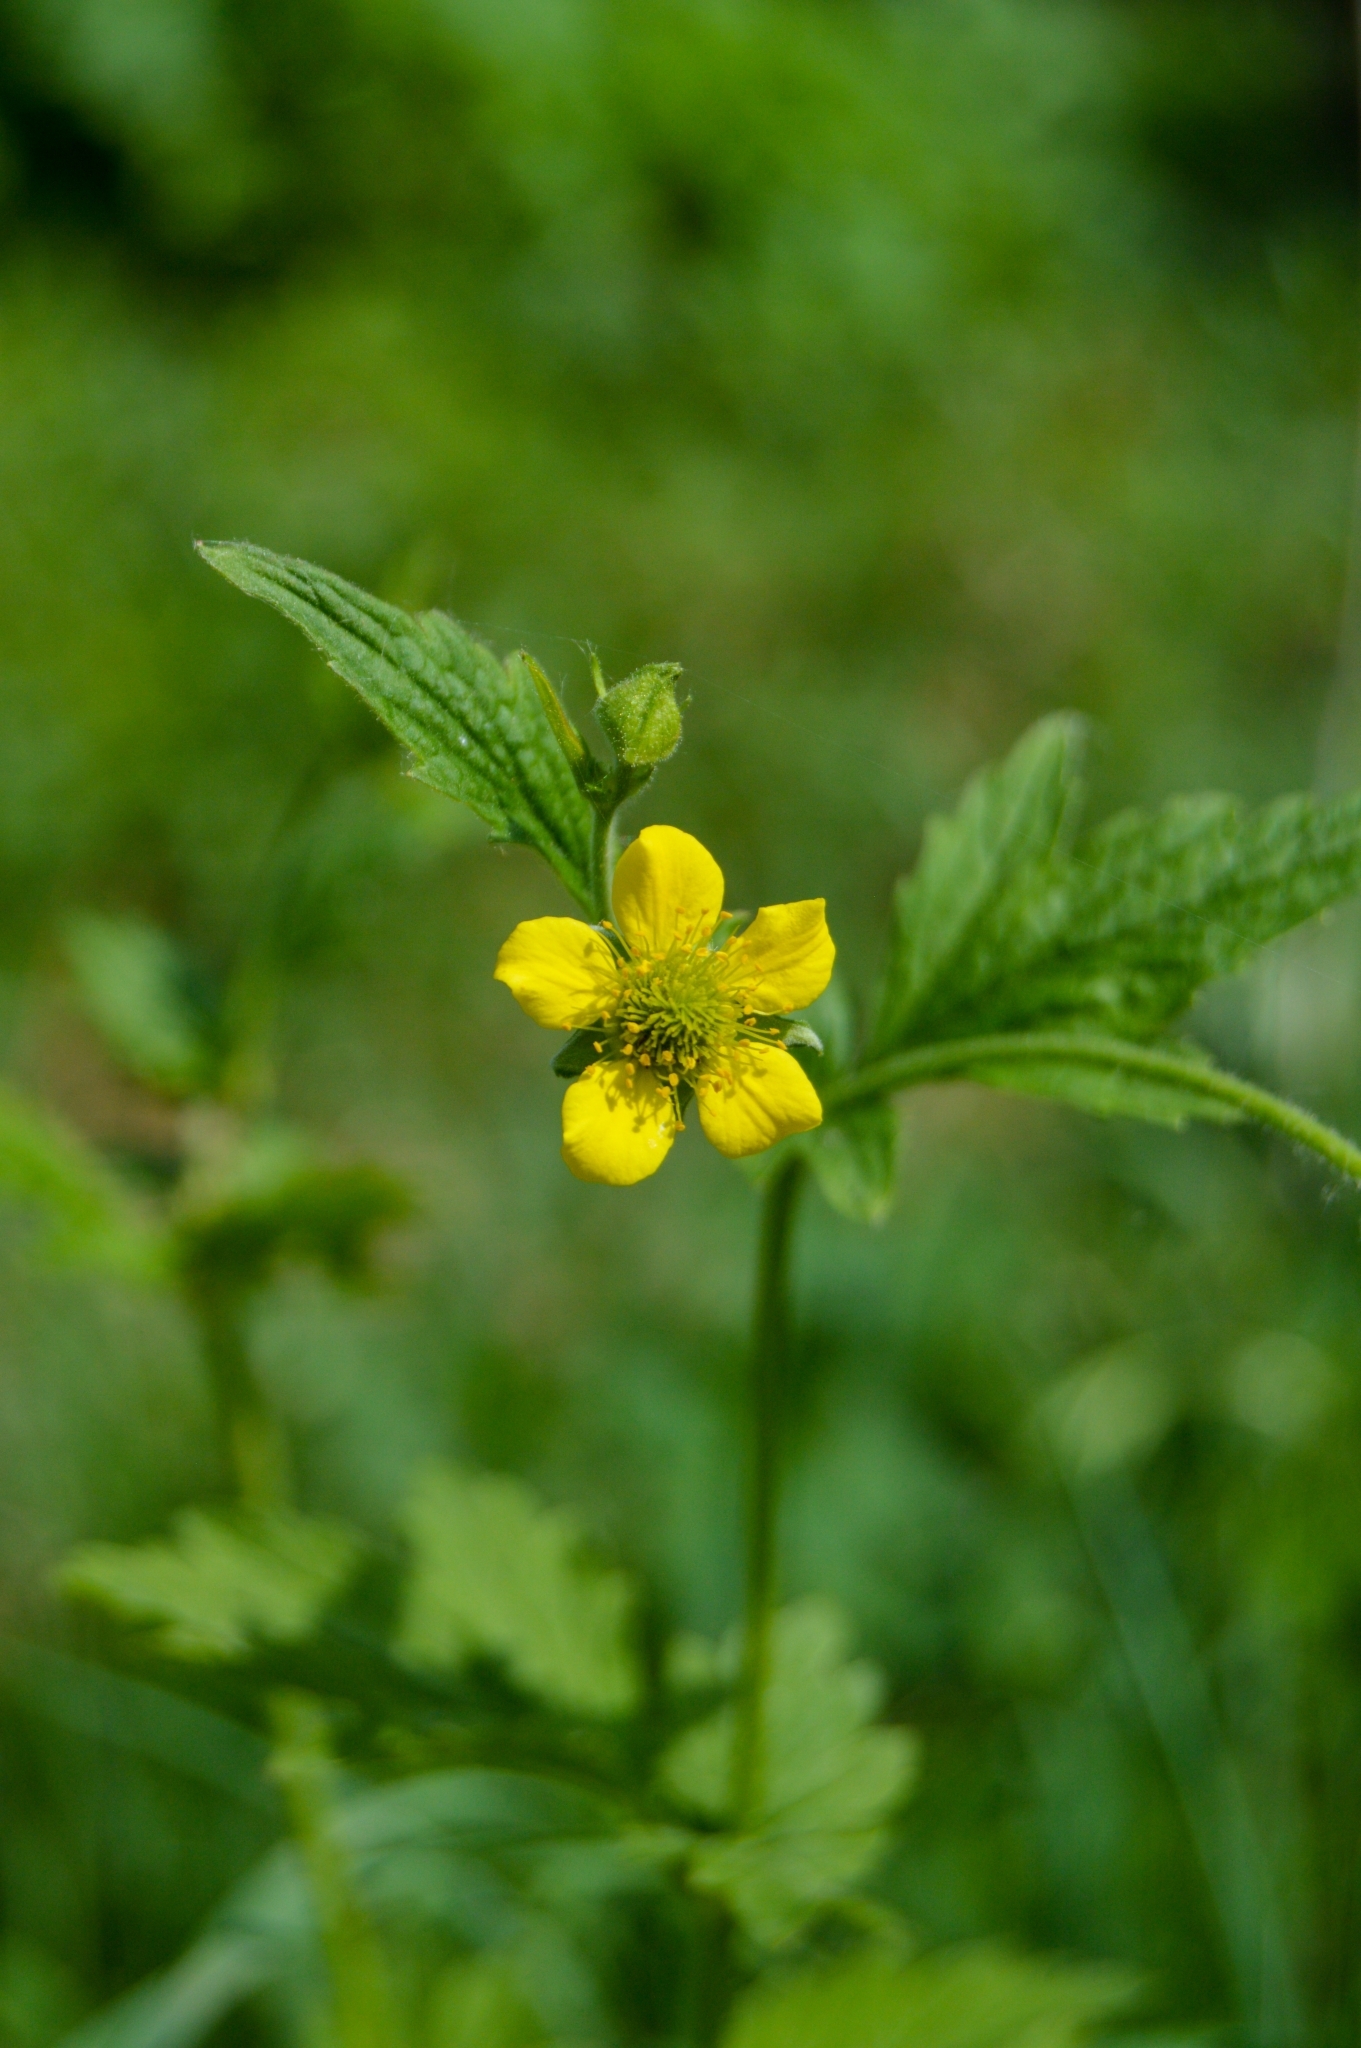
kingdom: Plantae
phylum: Tracheophyta
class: Magnoliopsida
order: Rosales
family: Rosaceae
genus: Geum
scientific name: Geum urbanum
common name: Wood avens
